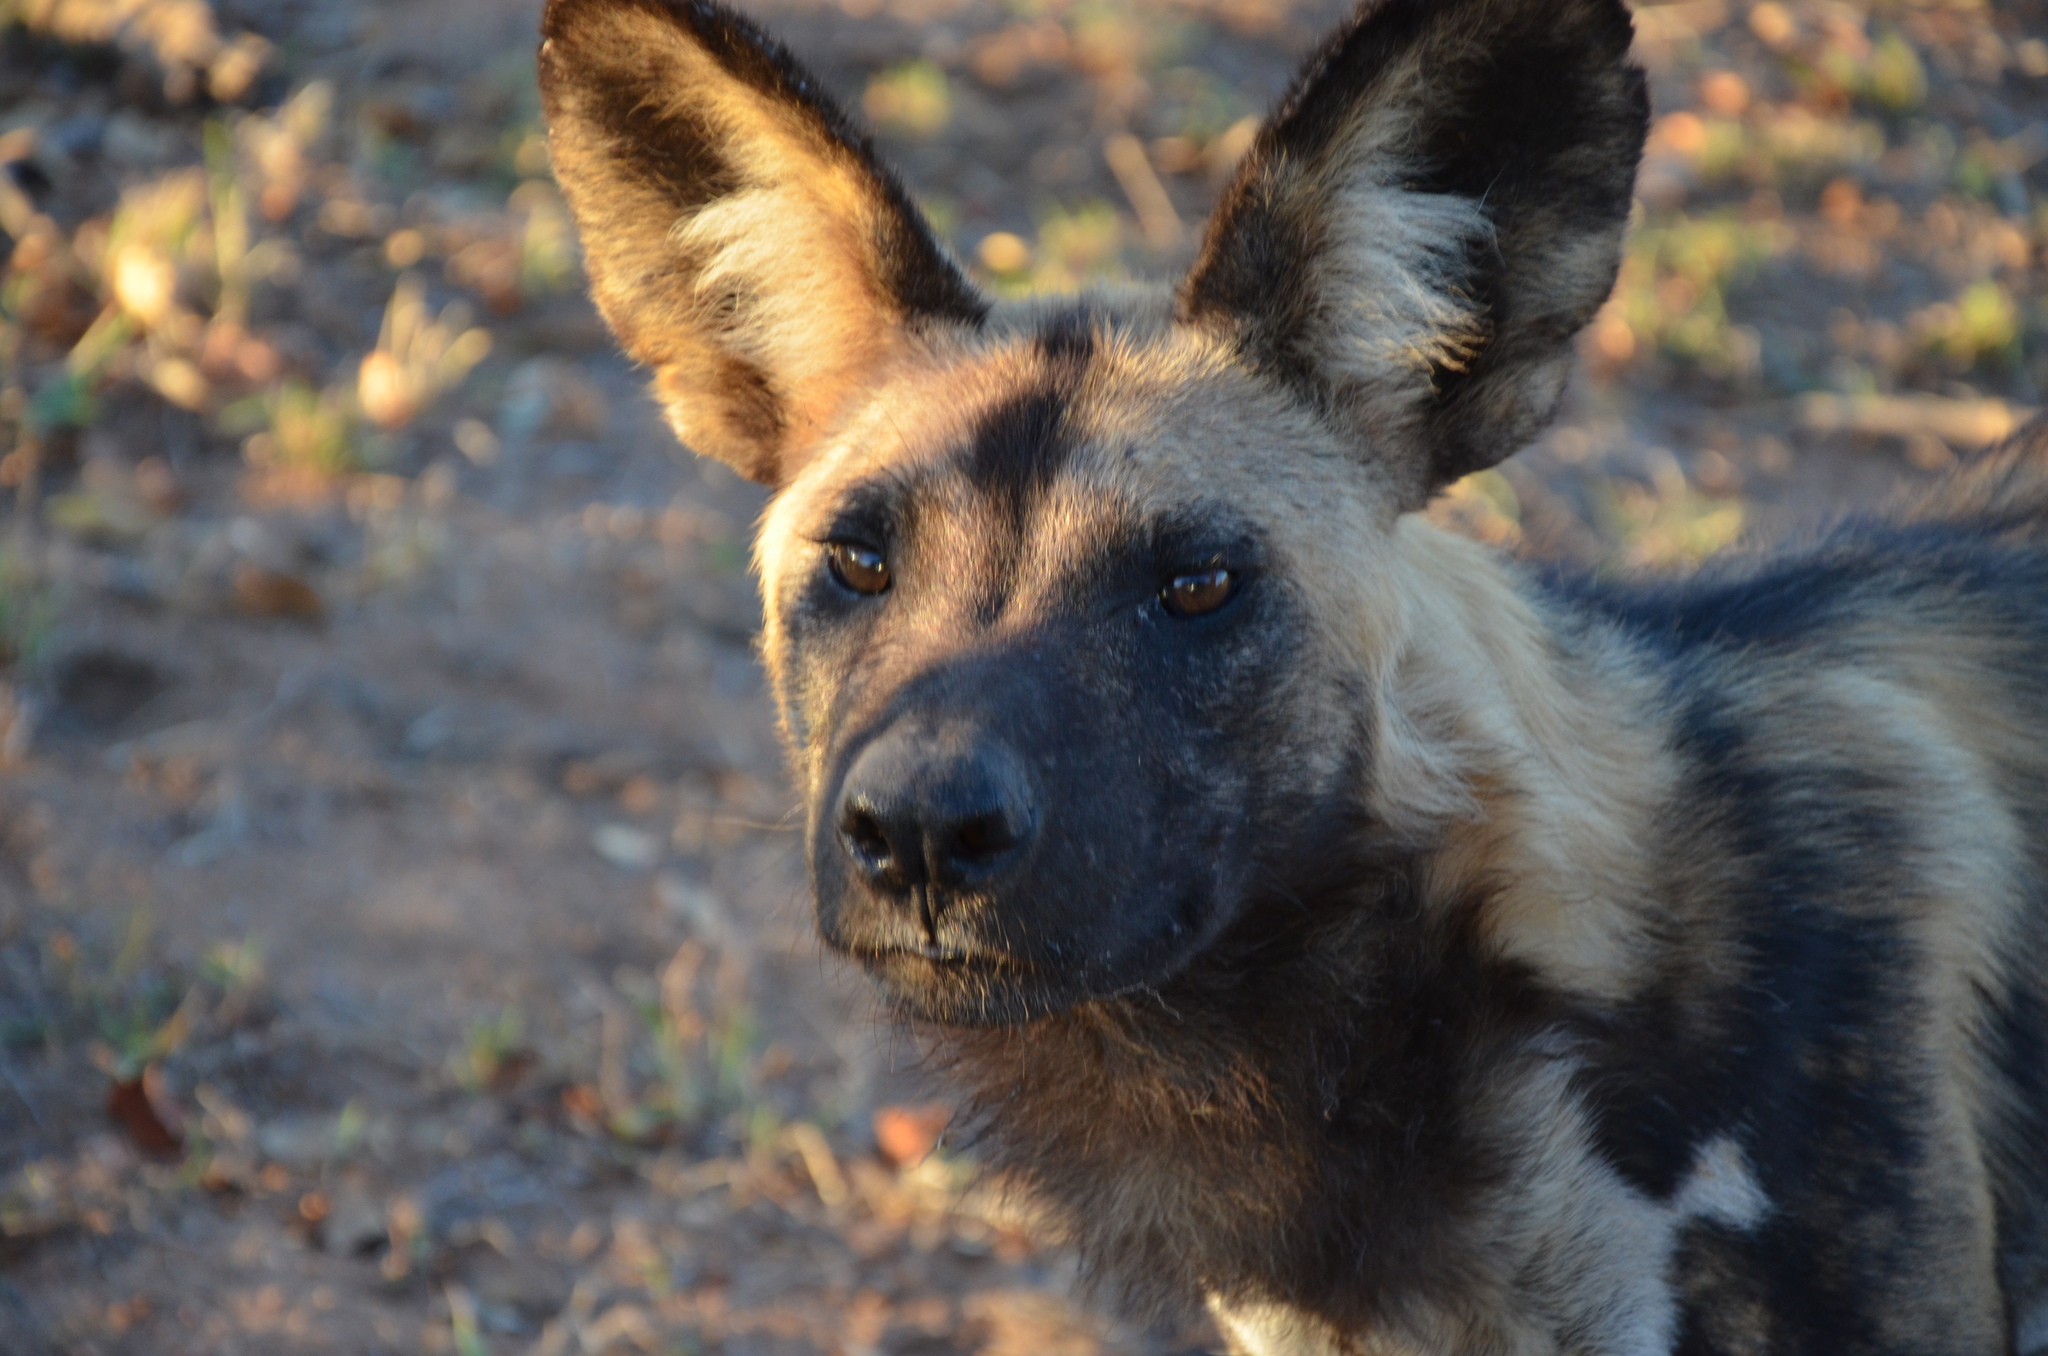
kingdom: Animalia
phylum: Chordata
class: Mammalia
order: Carnivora
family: Canidae
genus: Lycaon
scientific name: Lycaon pictus
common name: African wild dog
